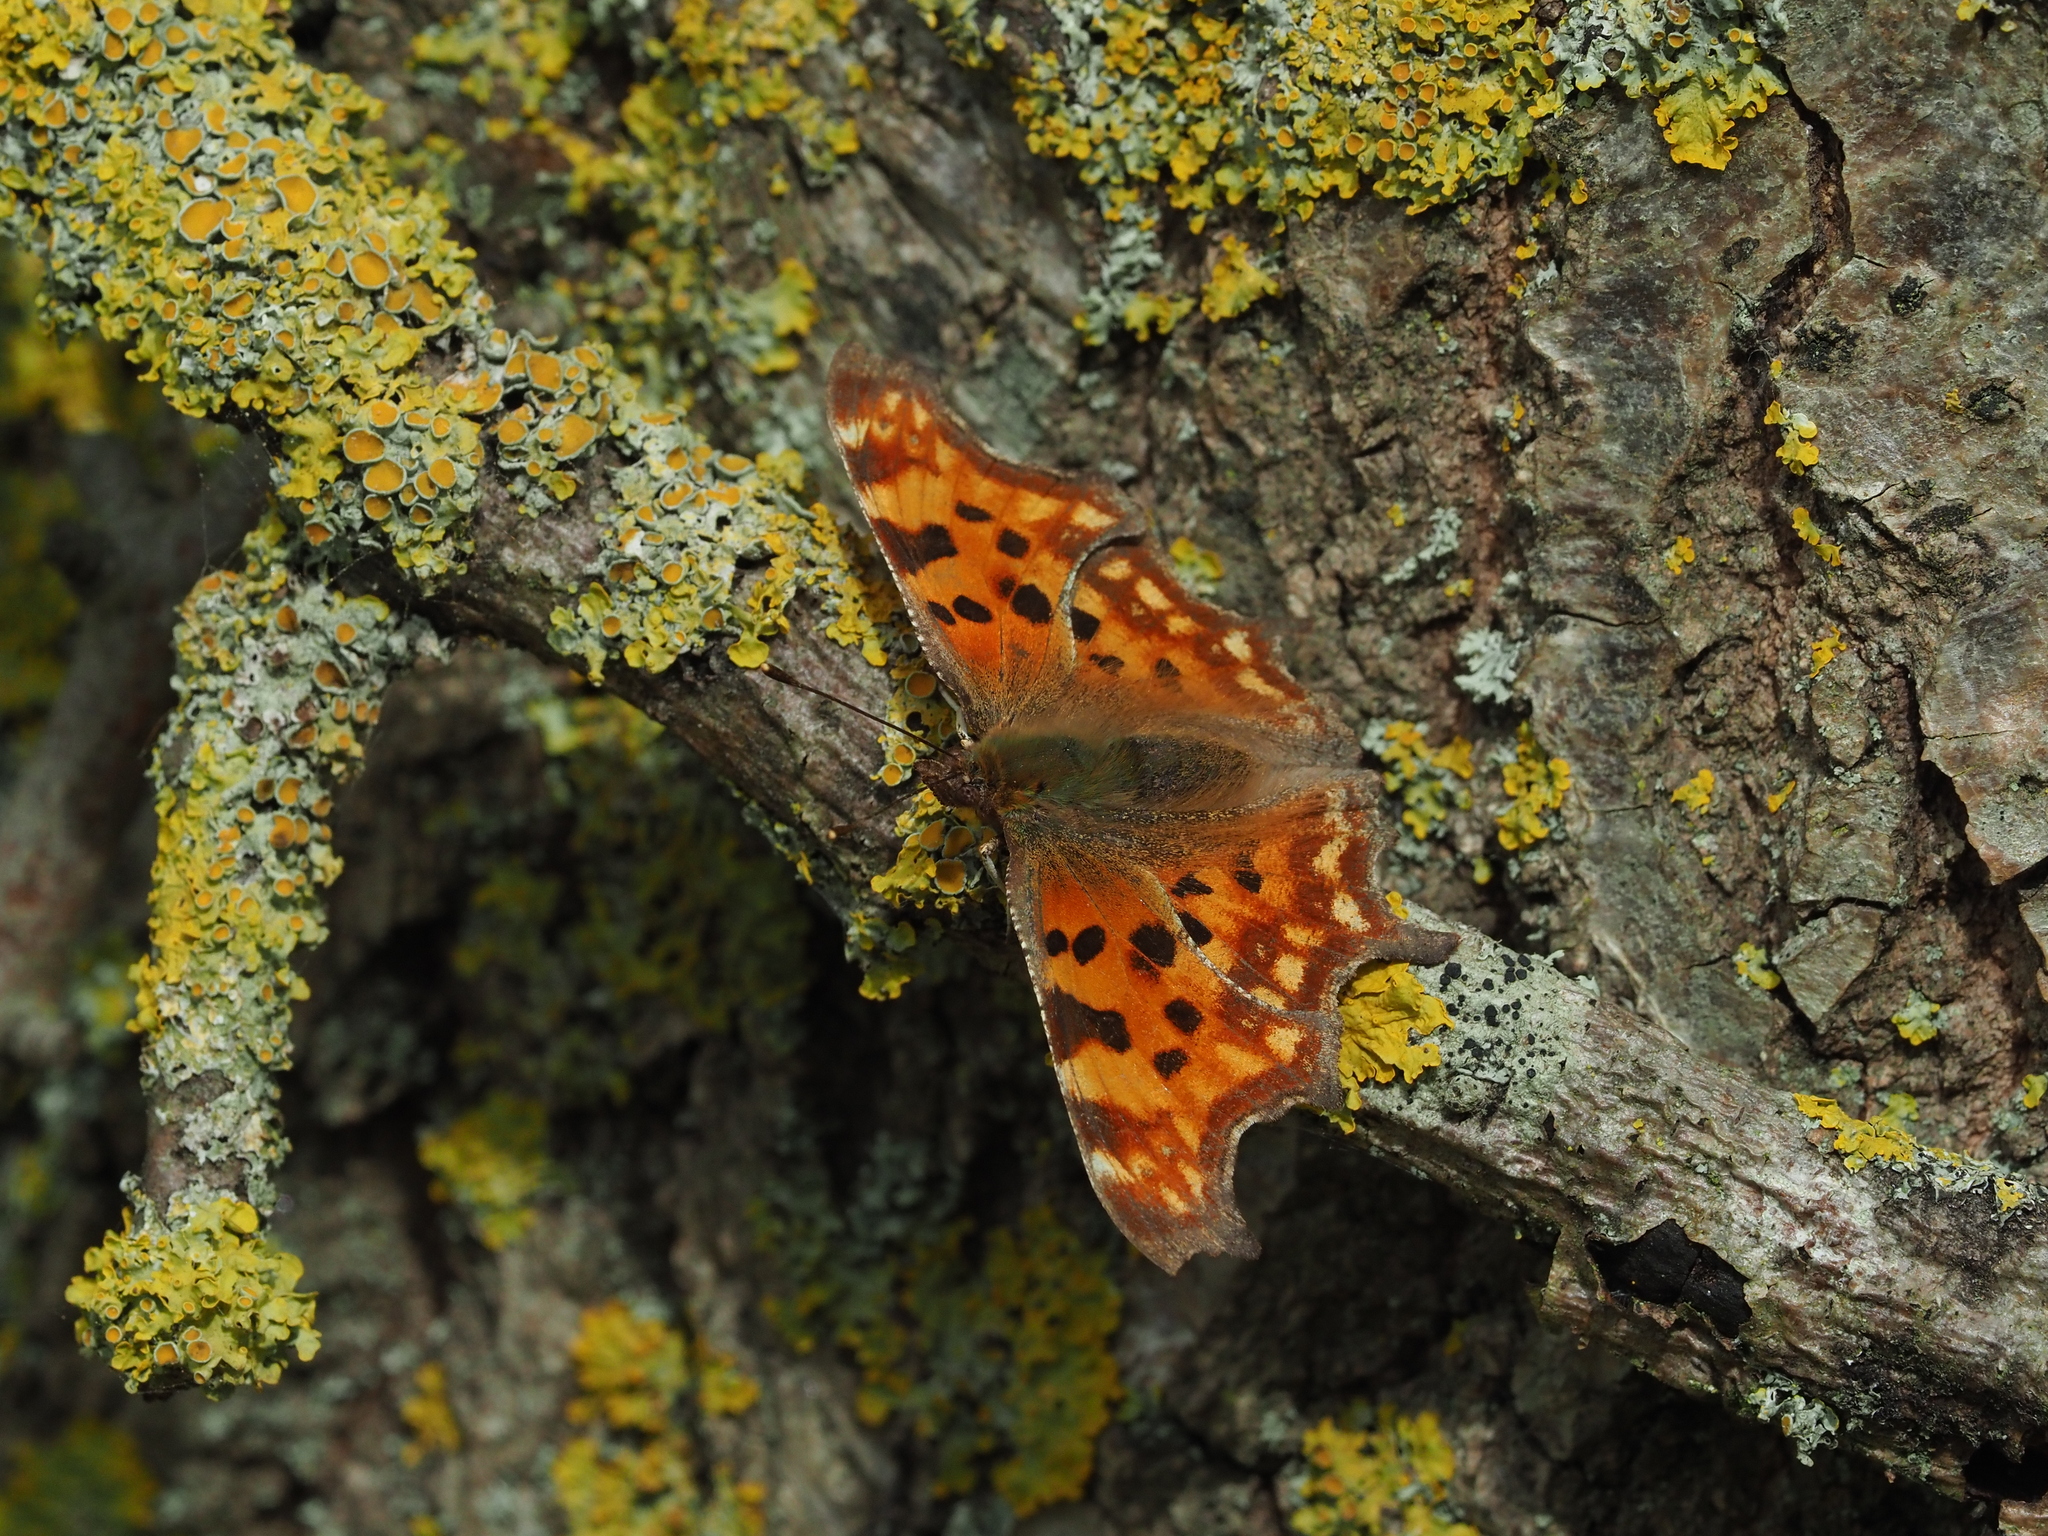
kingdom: Animalia
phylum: Arthropoda
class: Insecta
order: Lepidoptera
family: Nymphalidae
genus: Polygonia
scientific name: Polygonia c-album
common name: Comma
